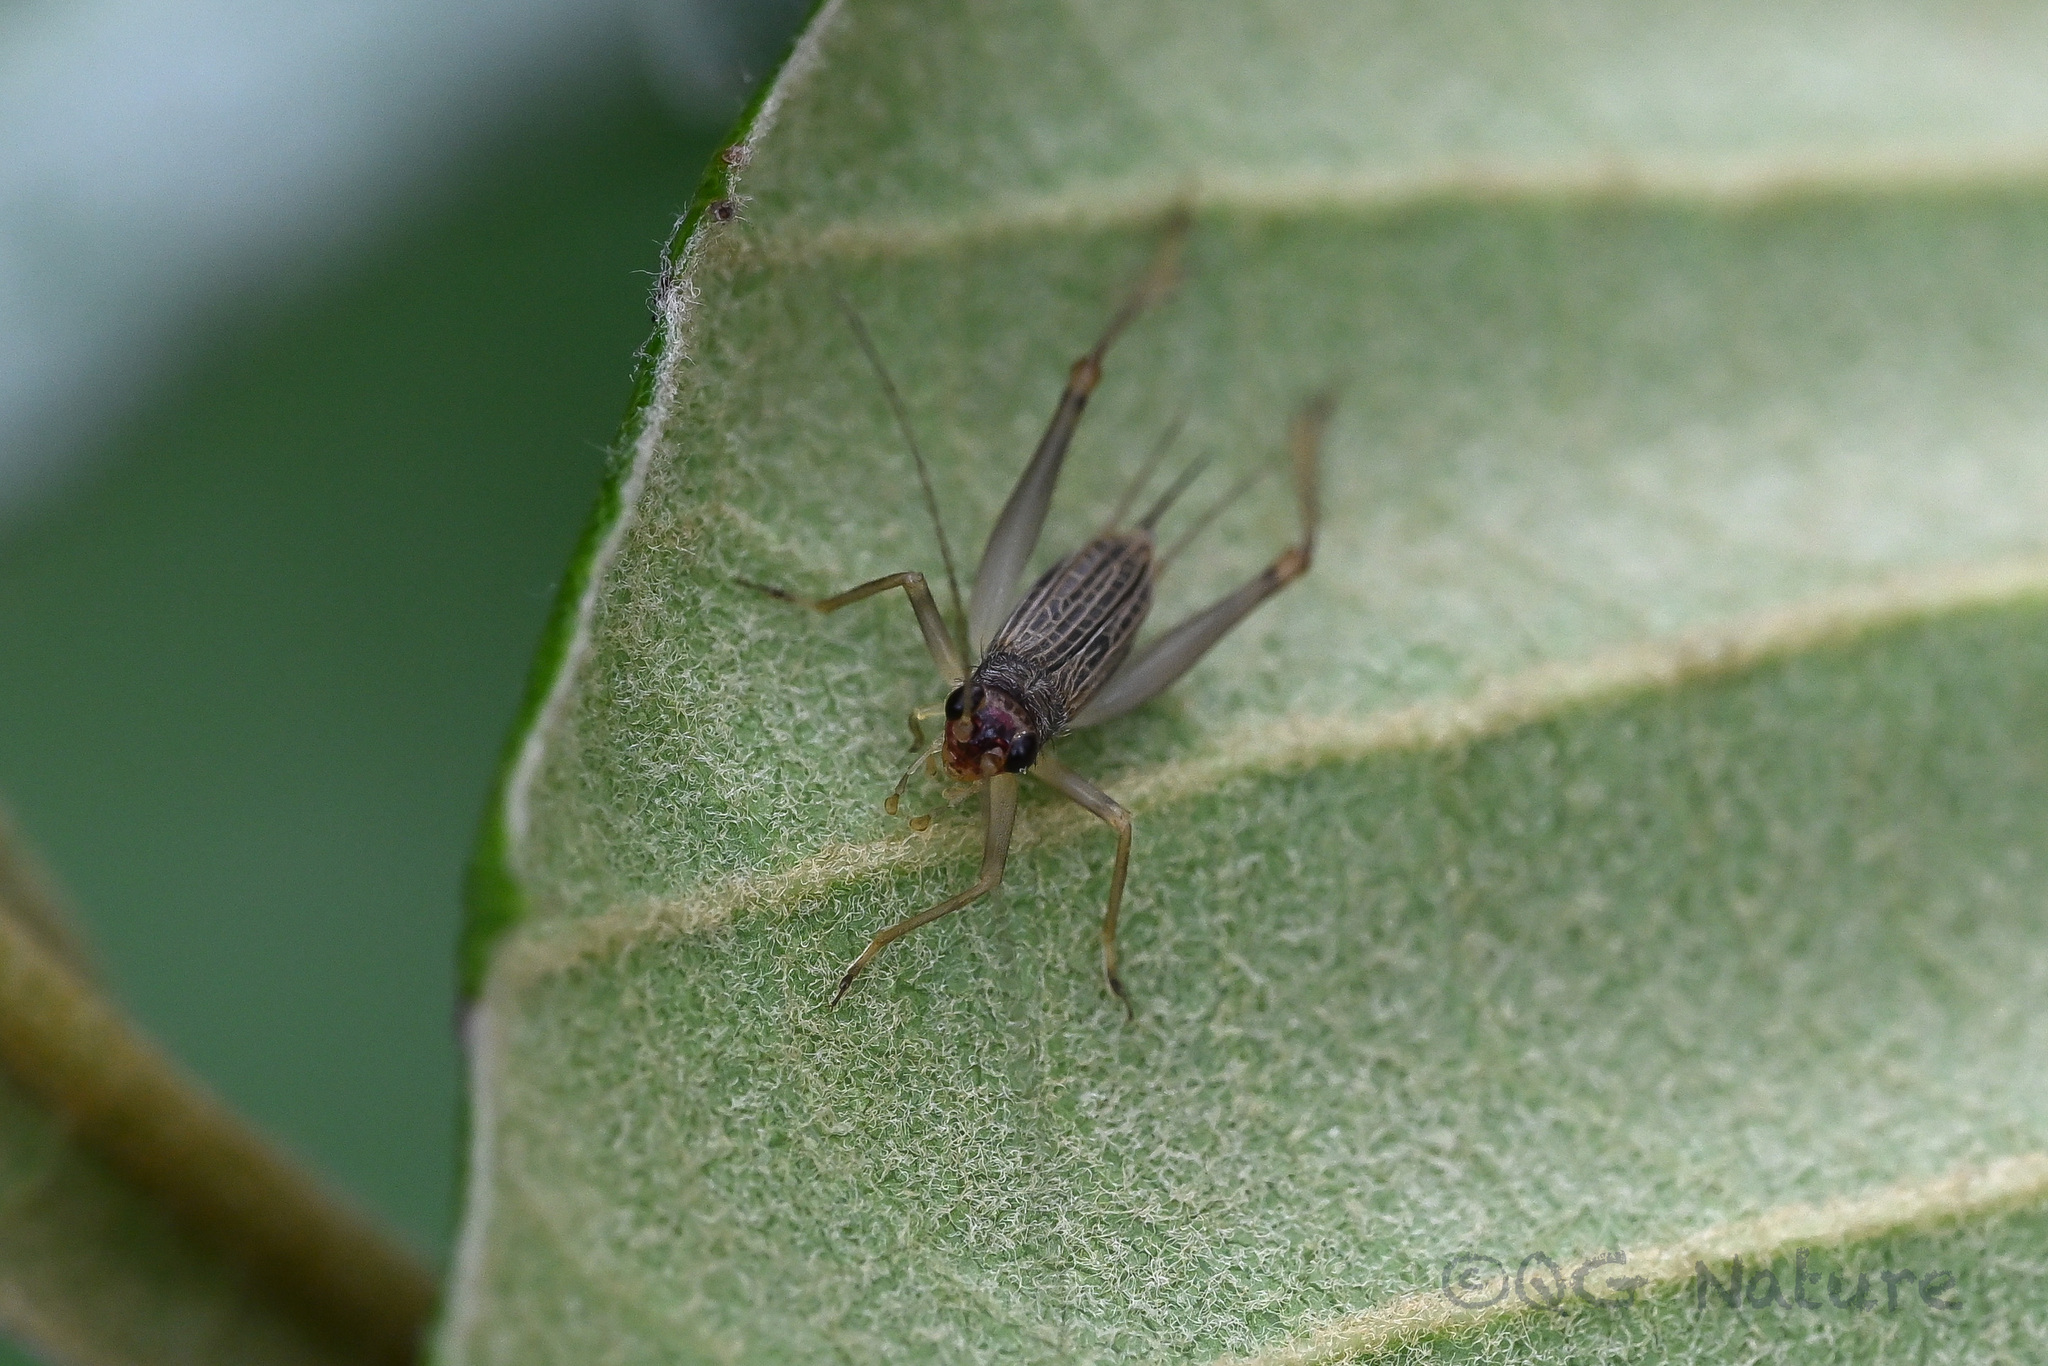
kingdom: Animalia
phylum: Arthropoda
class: Insecta
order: Orthoptera
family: Trigonidiidae
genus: Amusurgus
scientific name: Amusurgus genji
